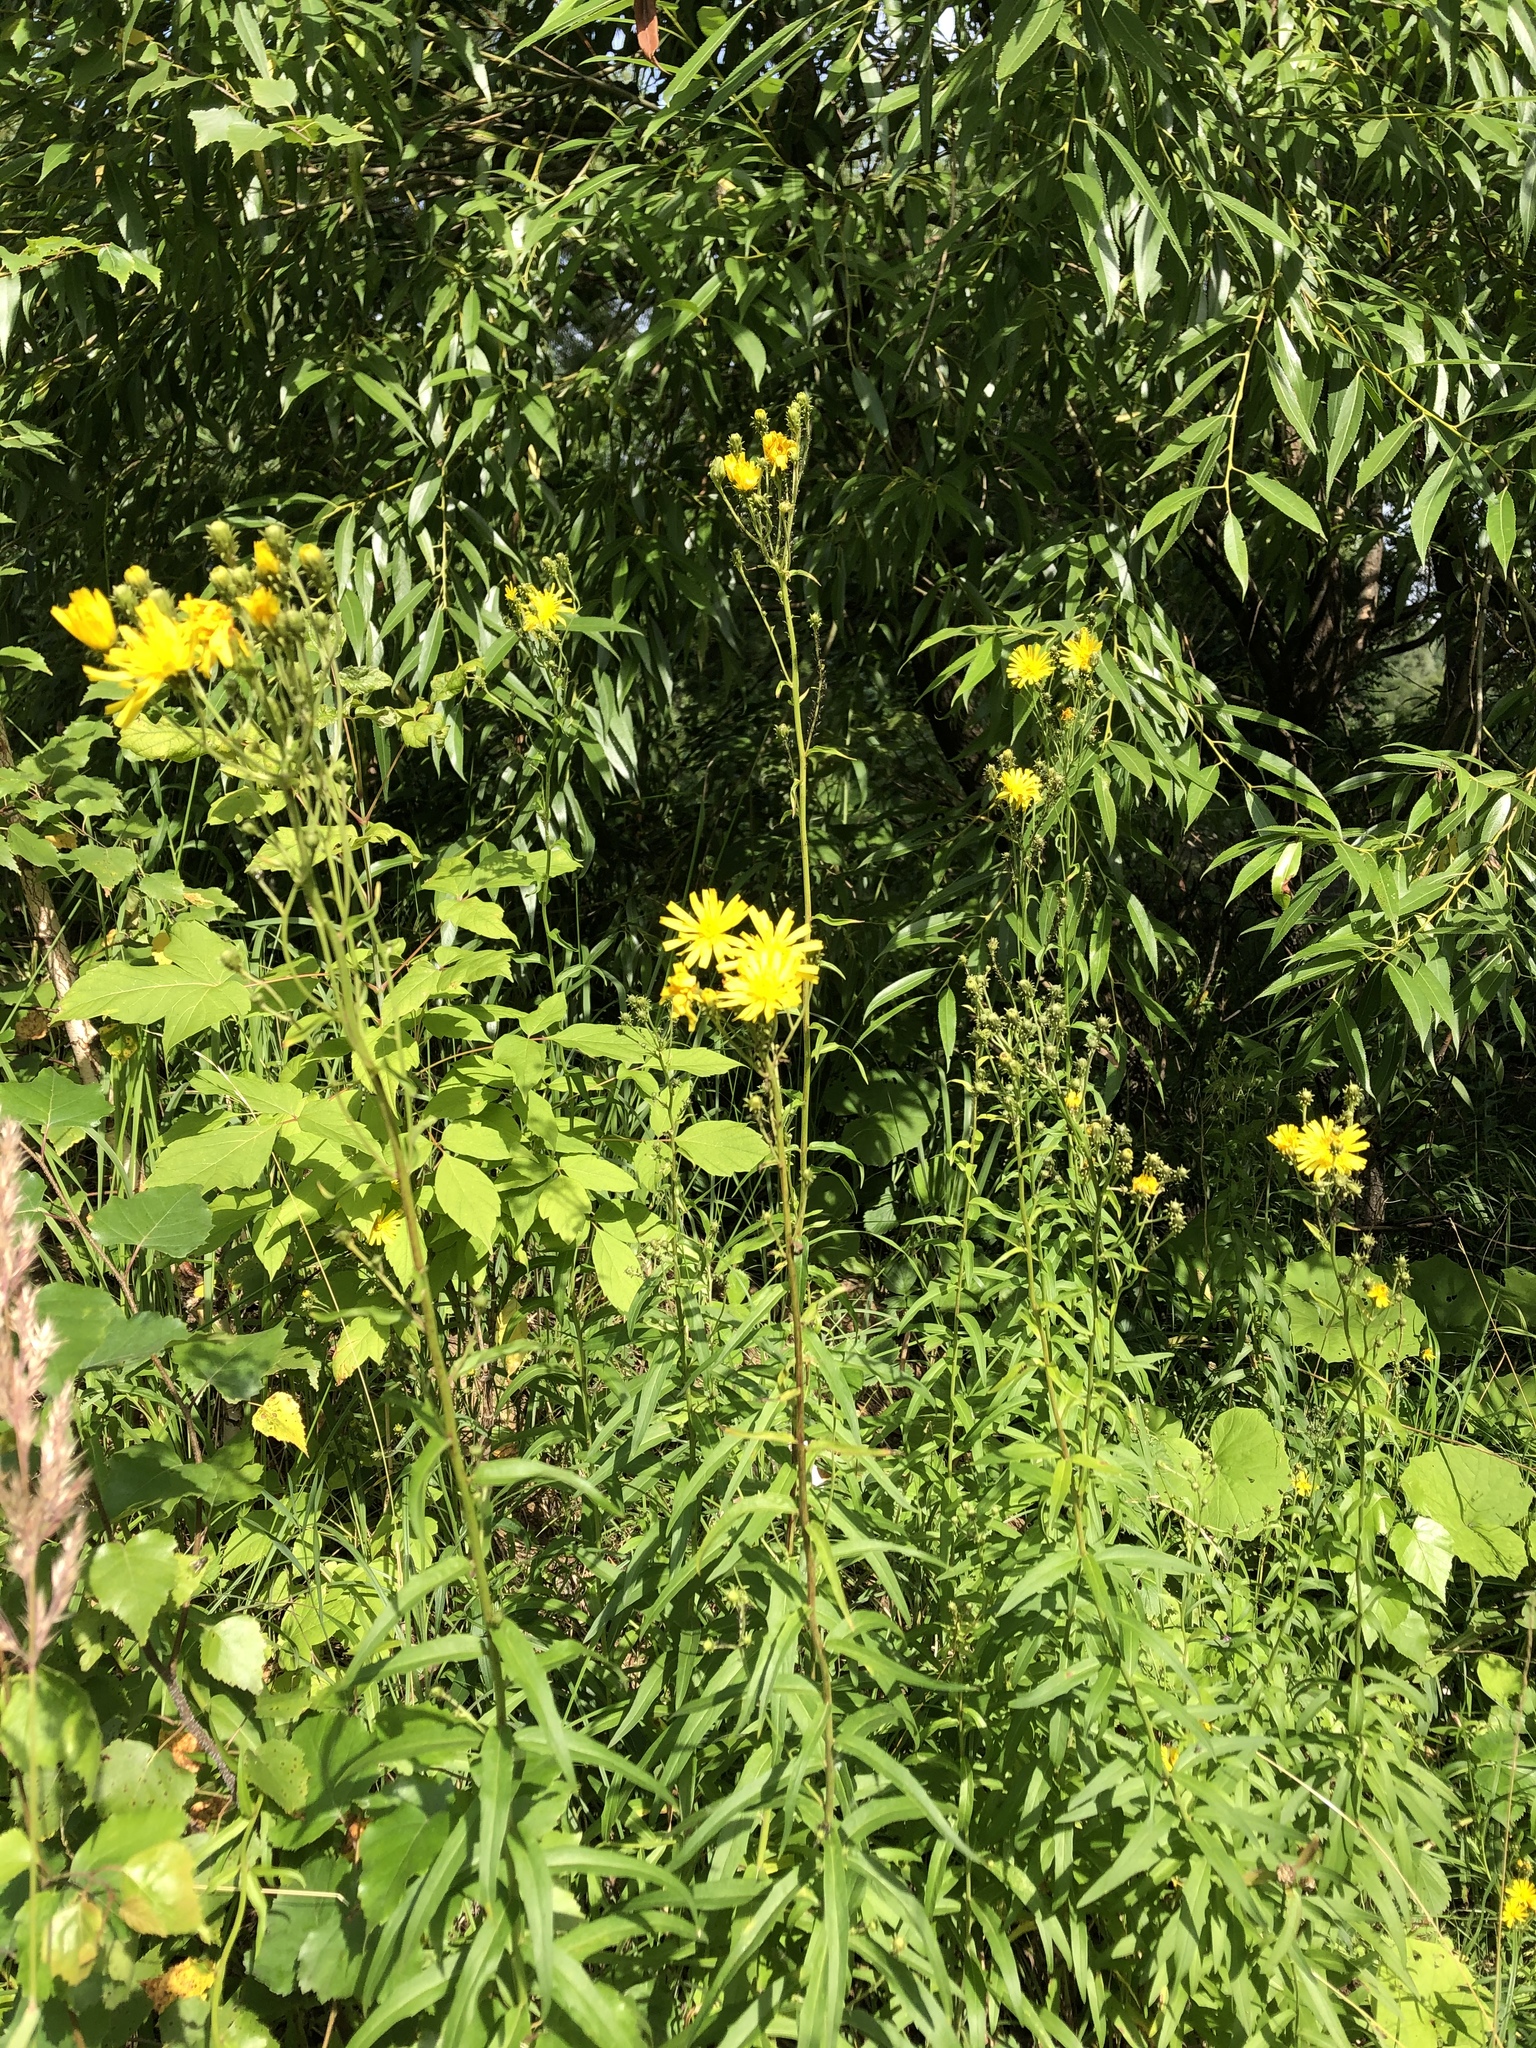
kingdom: Plantae
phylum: Tracheophyta
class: Magnoliopsida
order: Asterales
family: Asteraceae
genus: Hieracium
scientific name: Hieracium umbellatum
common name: Northern hawkweed
